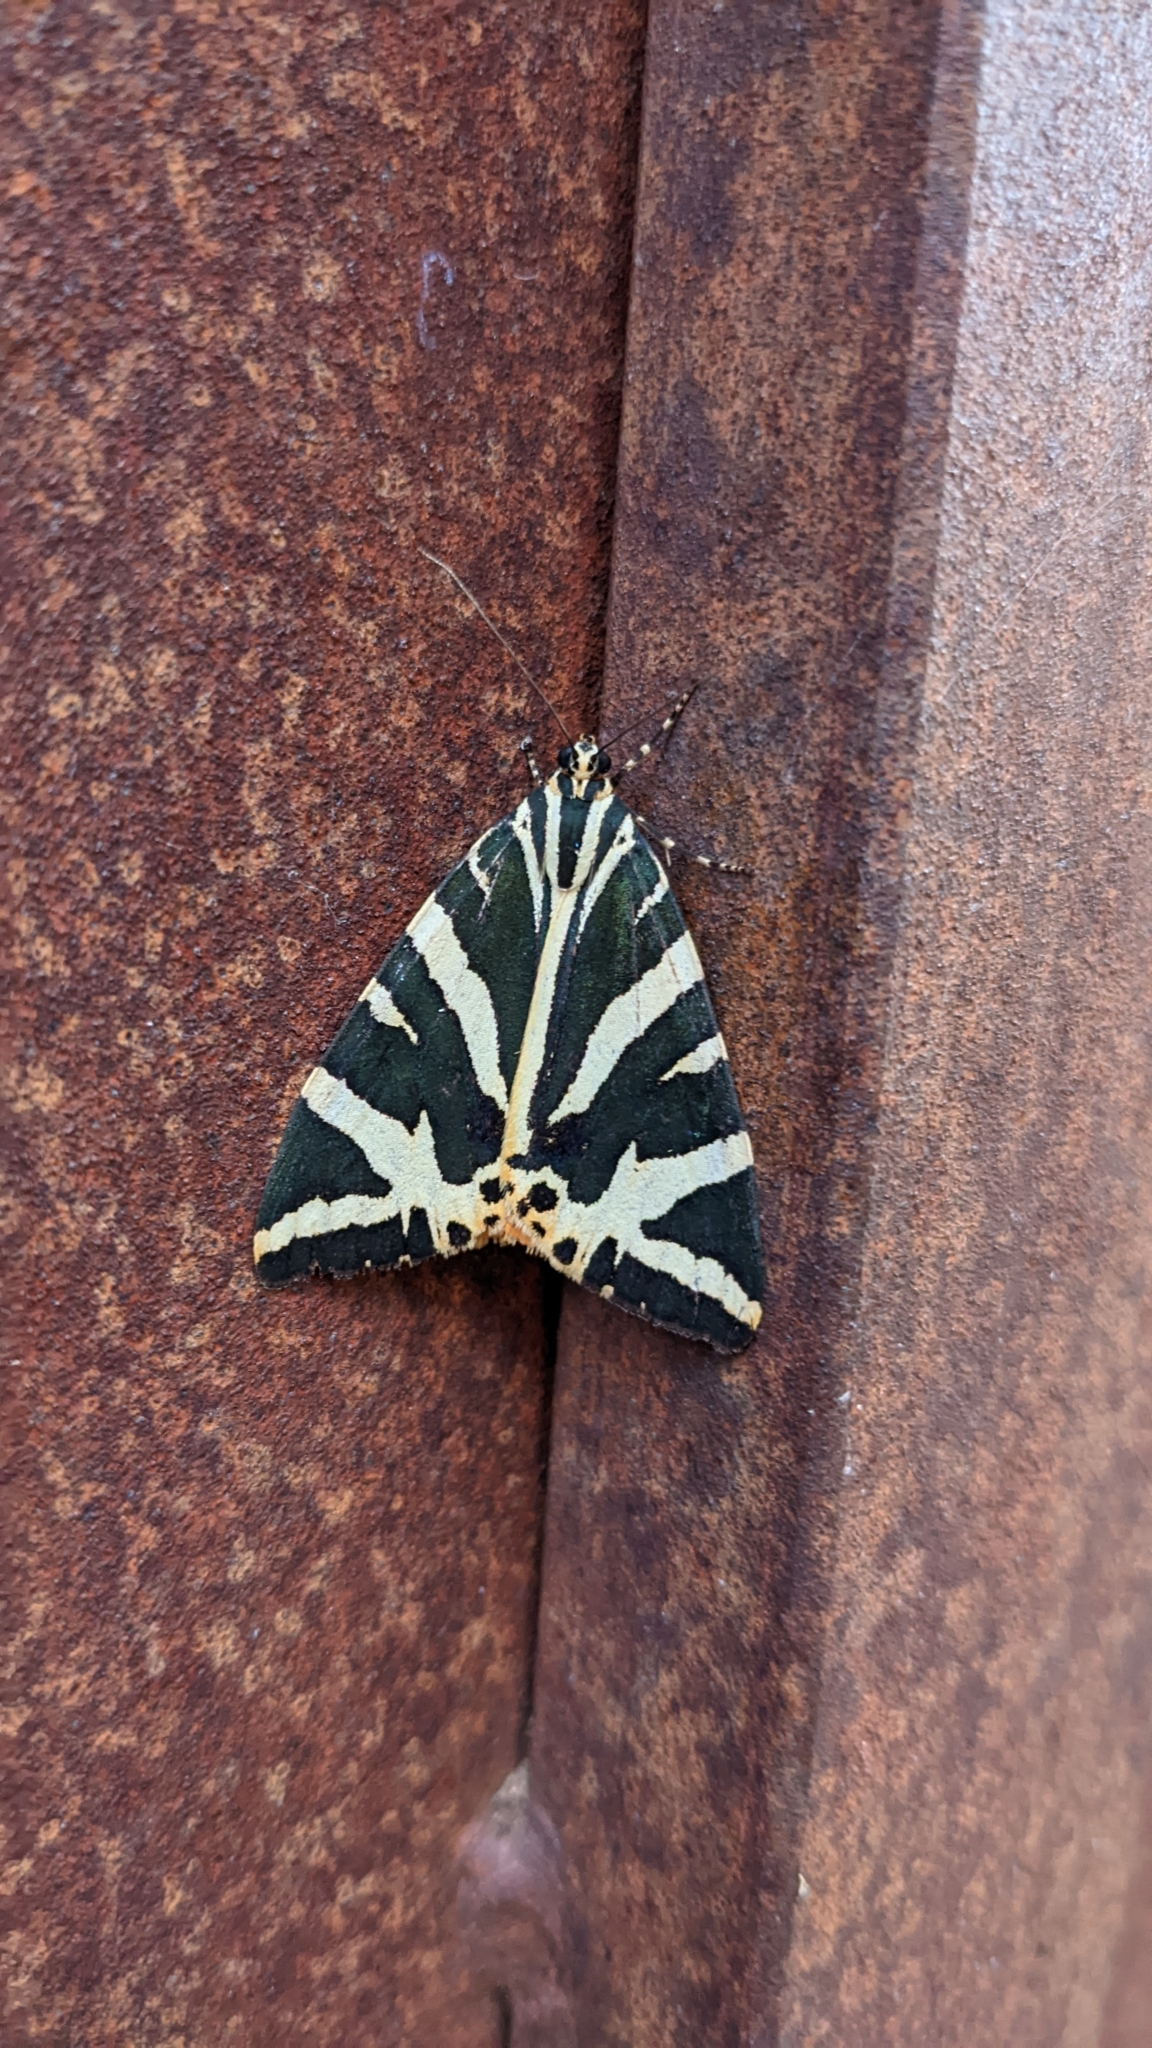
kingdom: Animalia
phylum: Arthropoda
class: Insecta
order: Lepidoptera
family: Erebidae
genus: Euplagia
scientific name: Euplagia quadripunctaria
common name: Jersey tiger
